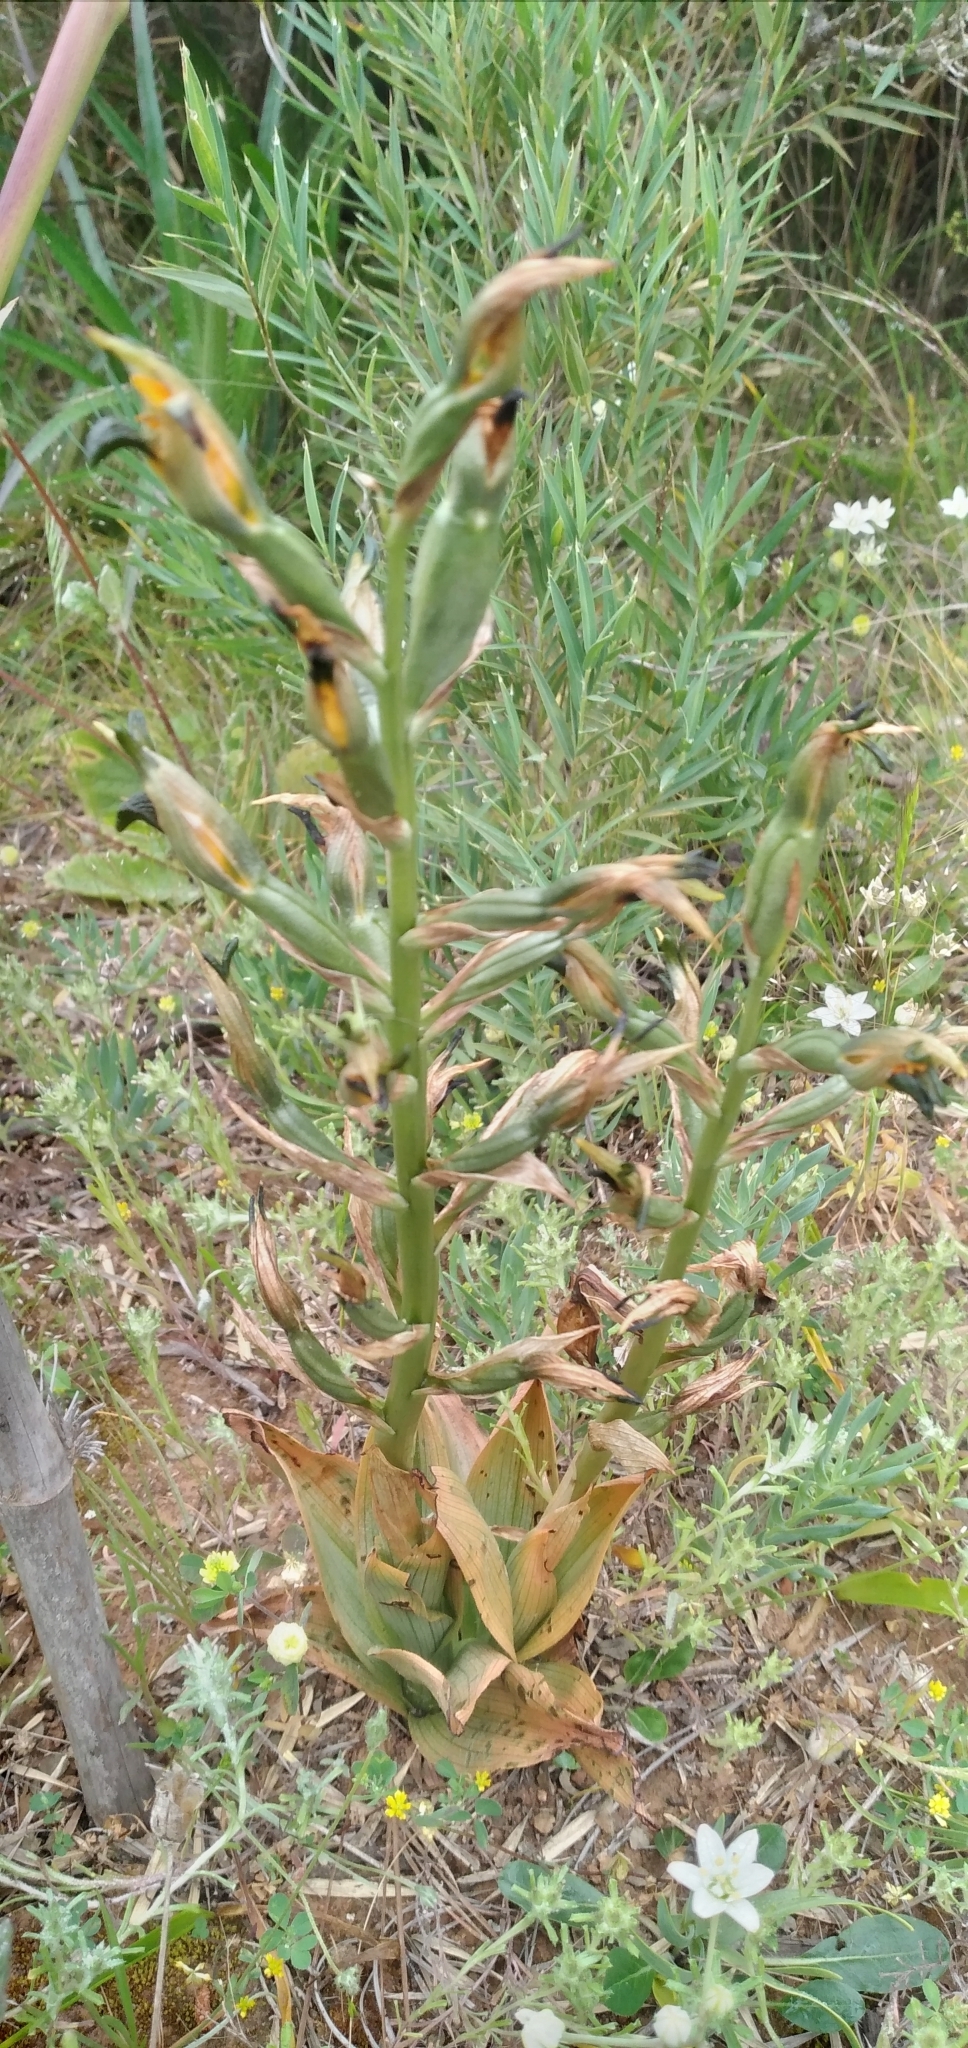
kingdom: Plantae
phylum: Tracheophyta
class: Liliopsida
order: Asparagales
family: Orchidaceae
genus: Chloraea
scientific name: Chloraea disoides
